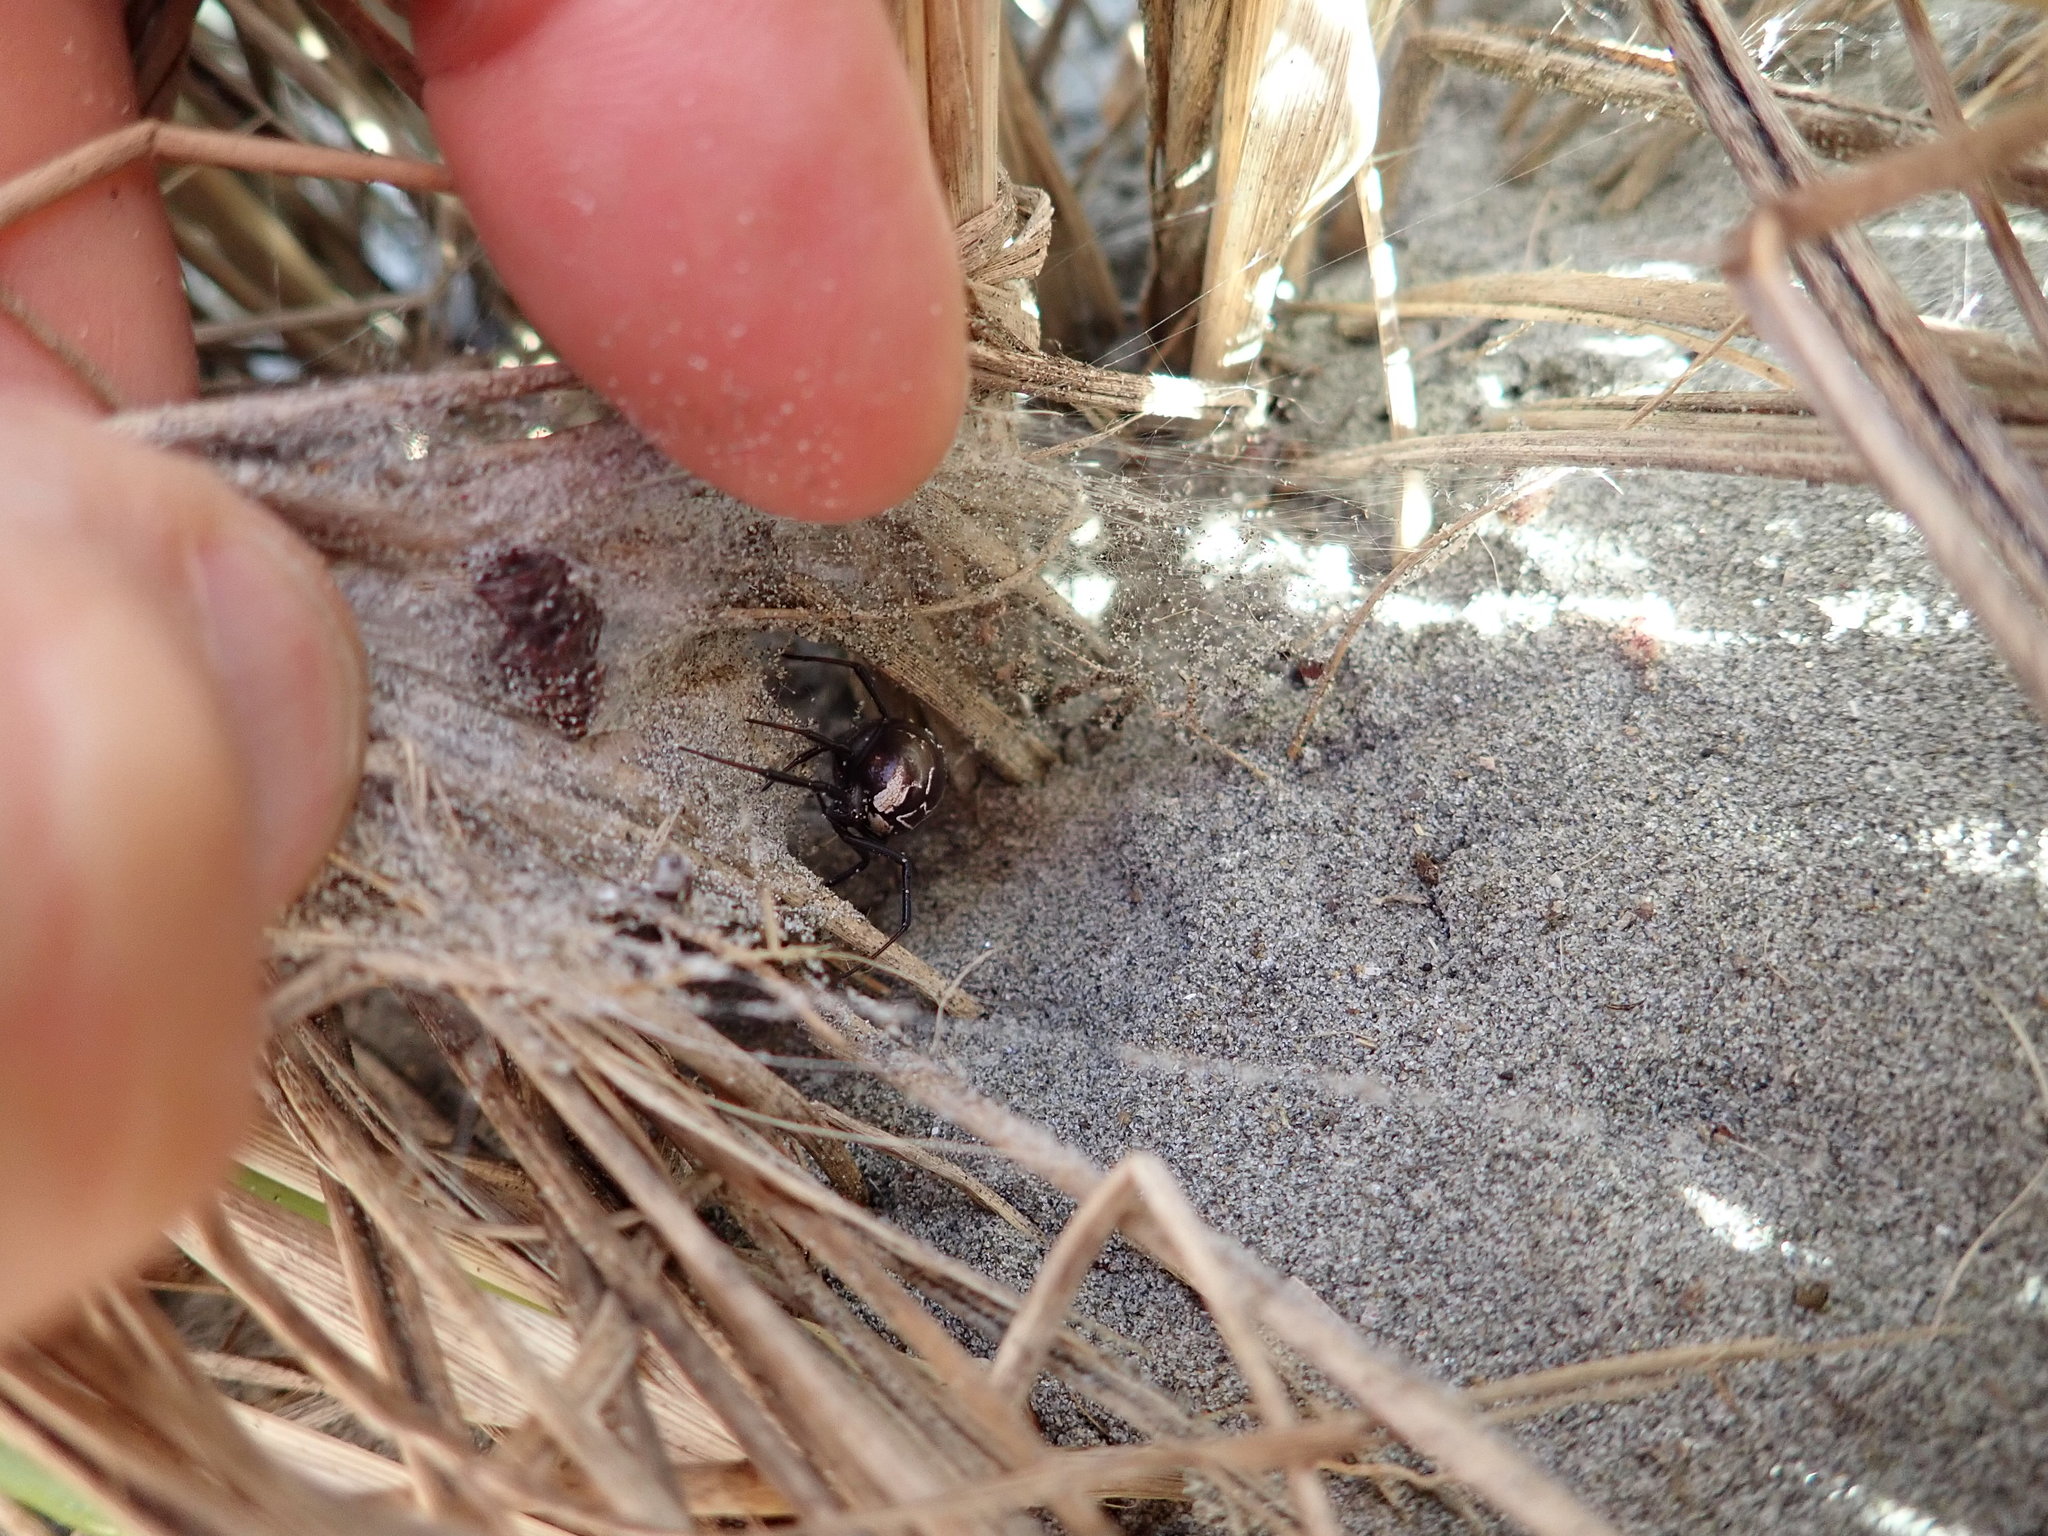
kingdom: Animalia
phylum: Arthropoda
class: Arachnida
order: Araneae
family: Theridiidae
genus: Latrodectus
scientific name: Latrodectus katipo
